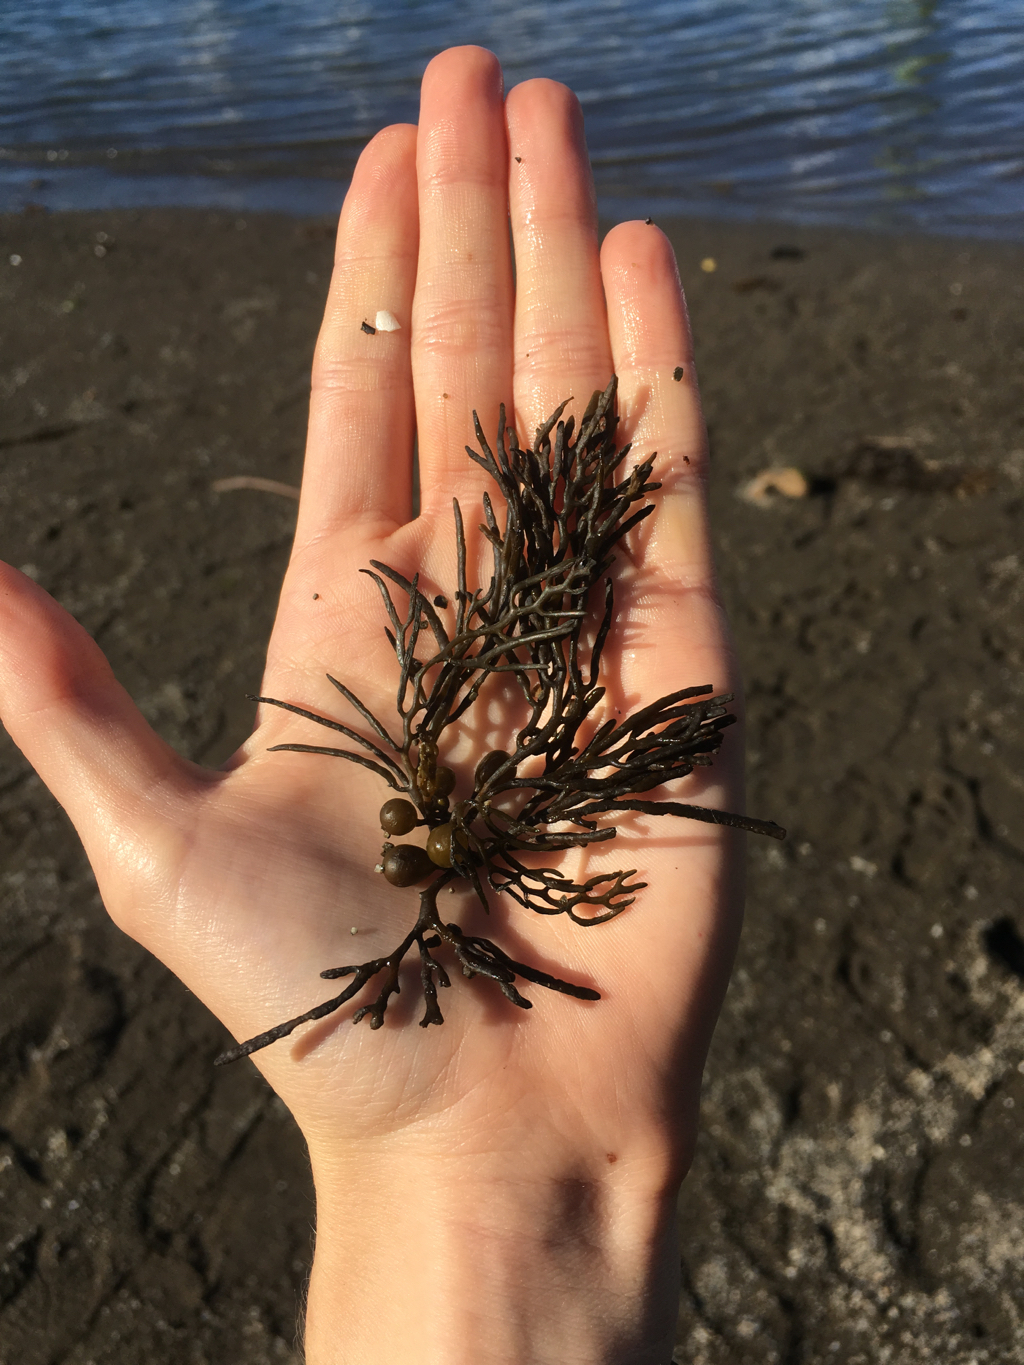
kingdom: Chromista
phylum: Ochrophyta
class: Phaeophyceae
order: Fucales
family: Sargassaceae
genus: Cystophora
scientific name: Cystophora retroflexa
